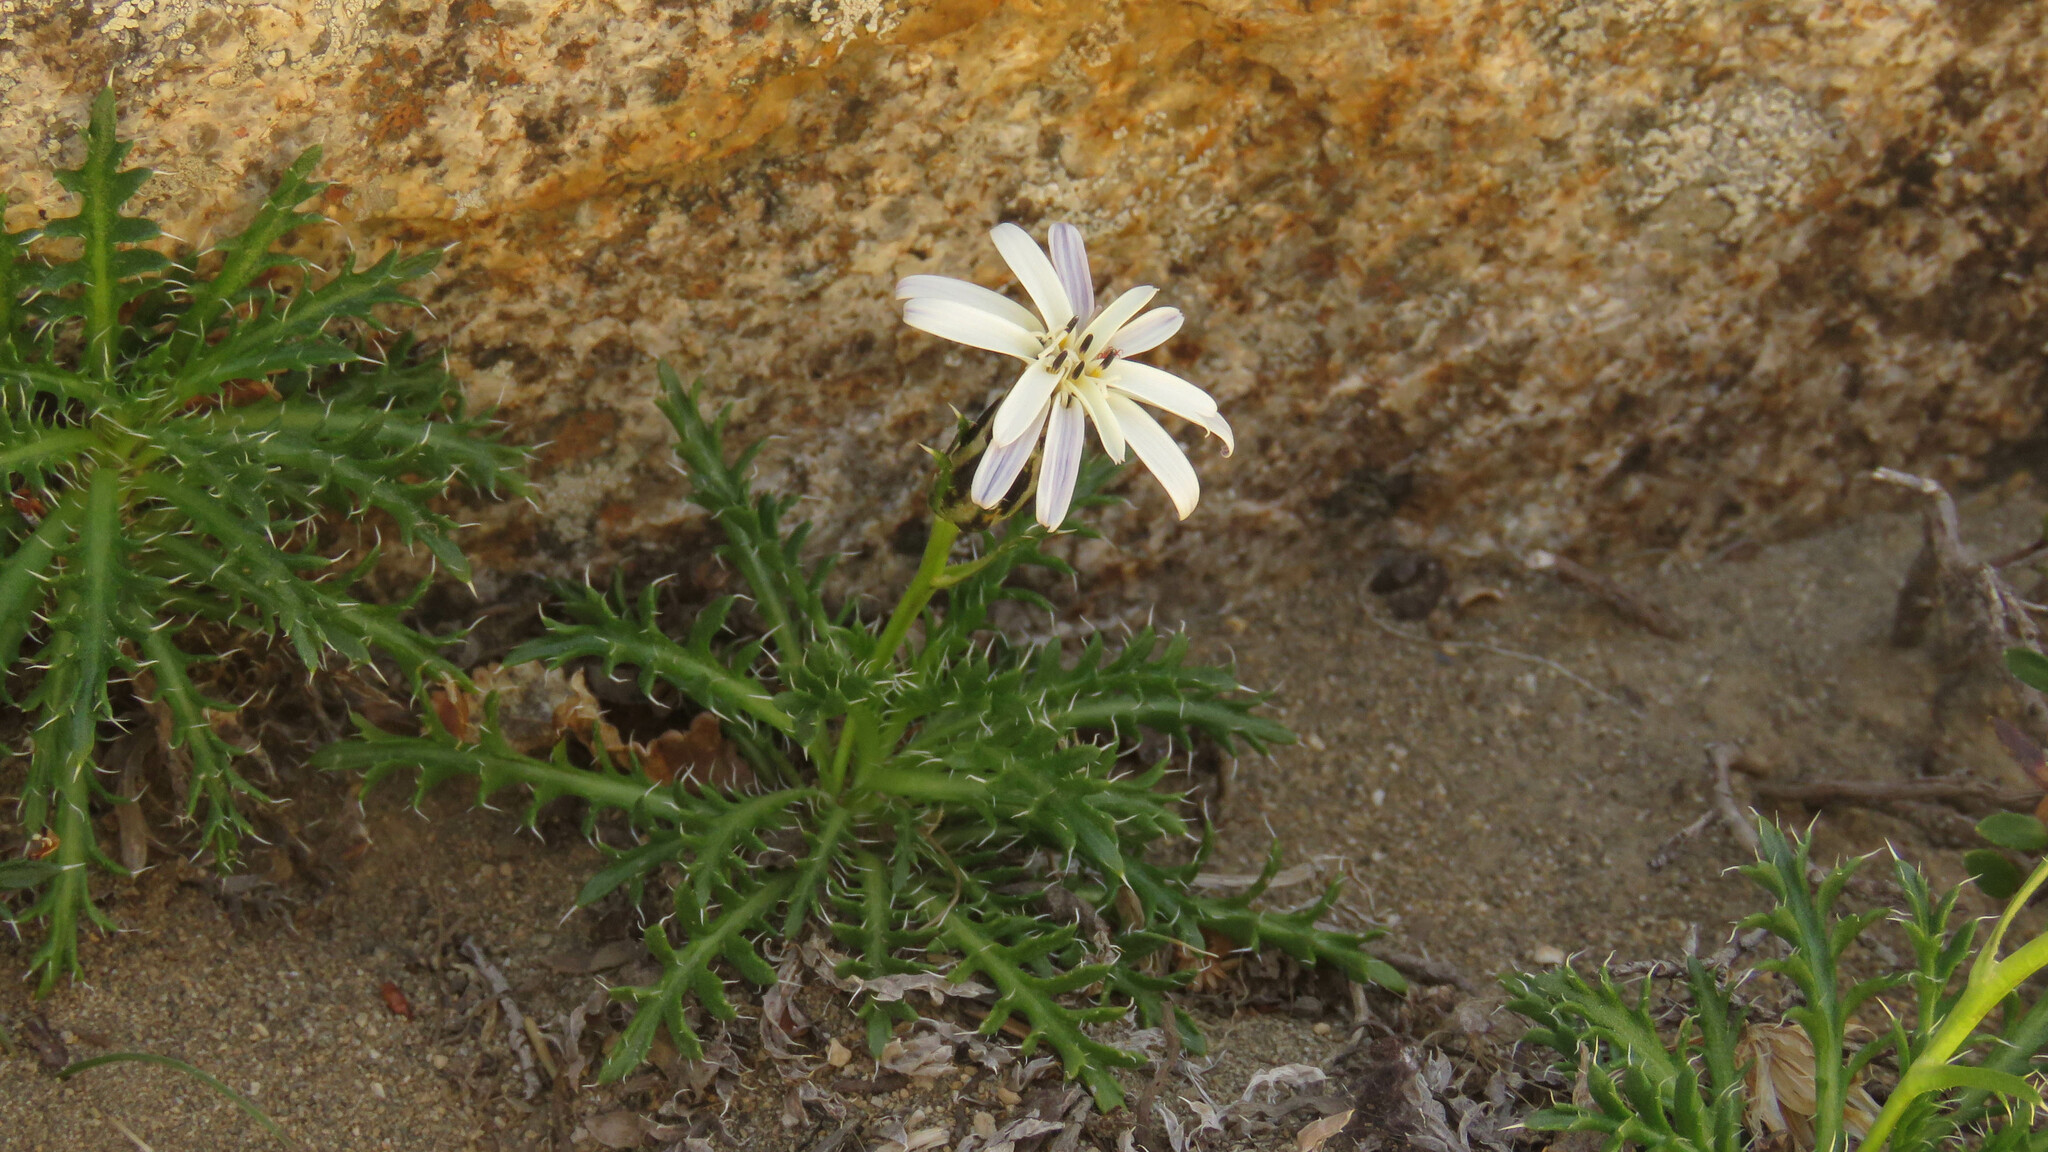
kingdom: Plantae
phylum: Tracheophyta
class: Magnoliopsida
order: Asterales
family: Asteraceae
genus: Perezia
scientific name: Perezia pilifera
